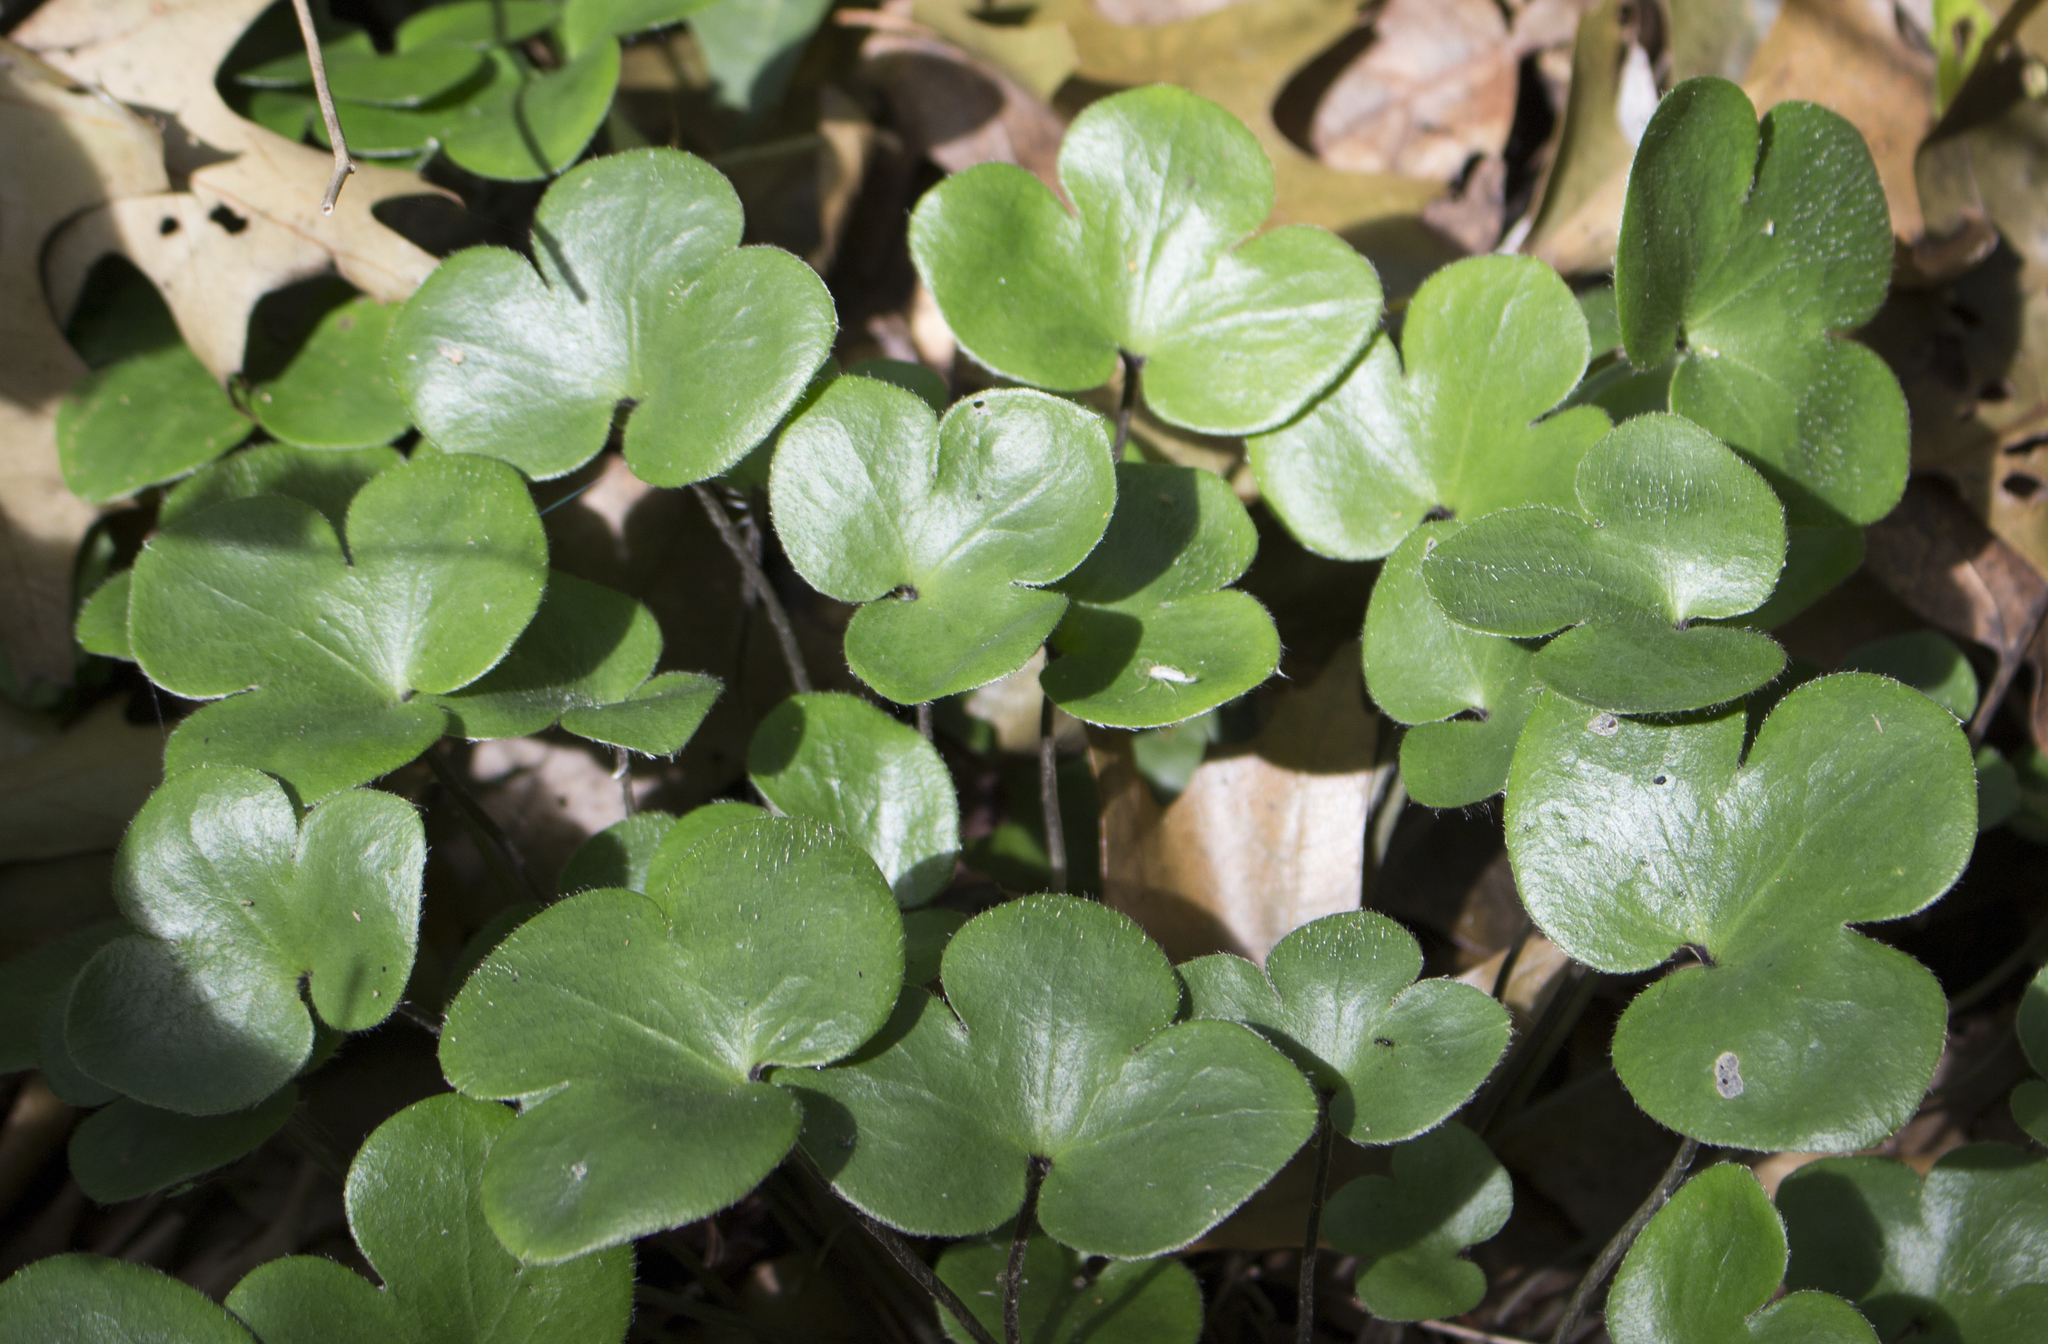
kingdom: Plantae
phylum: Tracheophyta
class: Magnoliopsida
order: Ranunculales
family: Ranunculaceae
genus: Hepatica
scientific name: Hepatica americana
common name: American hepatica
